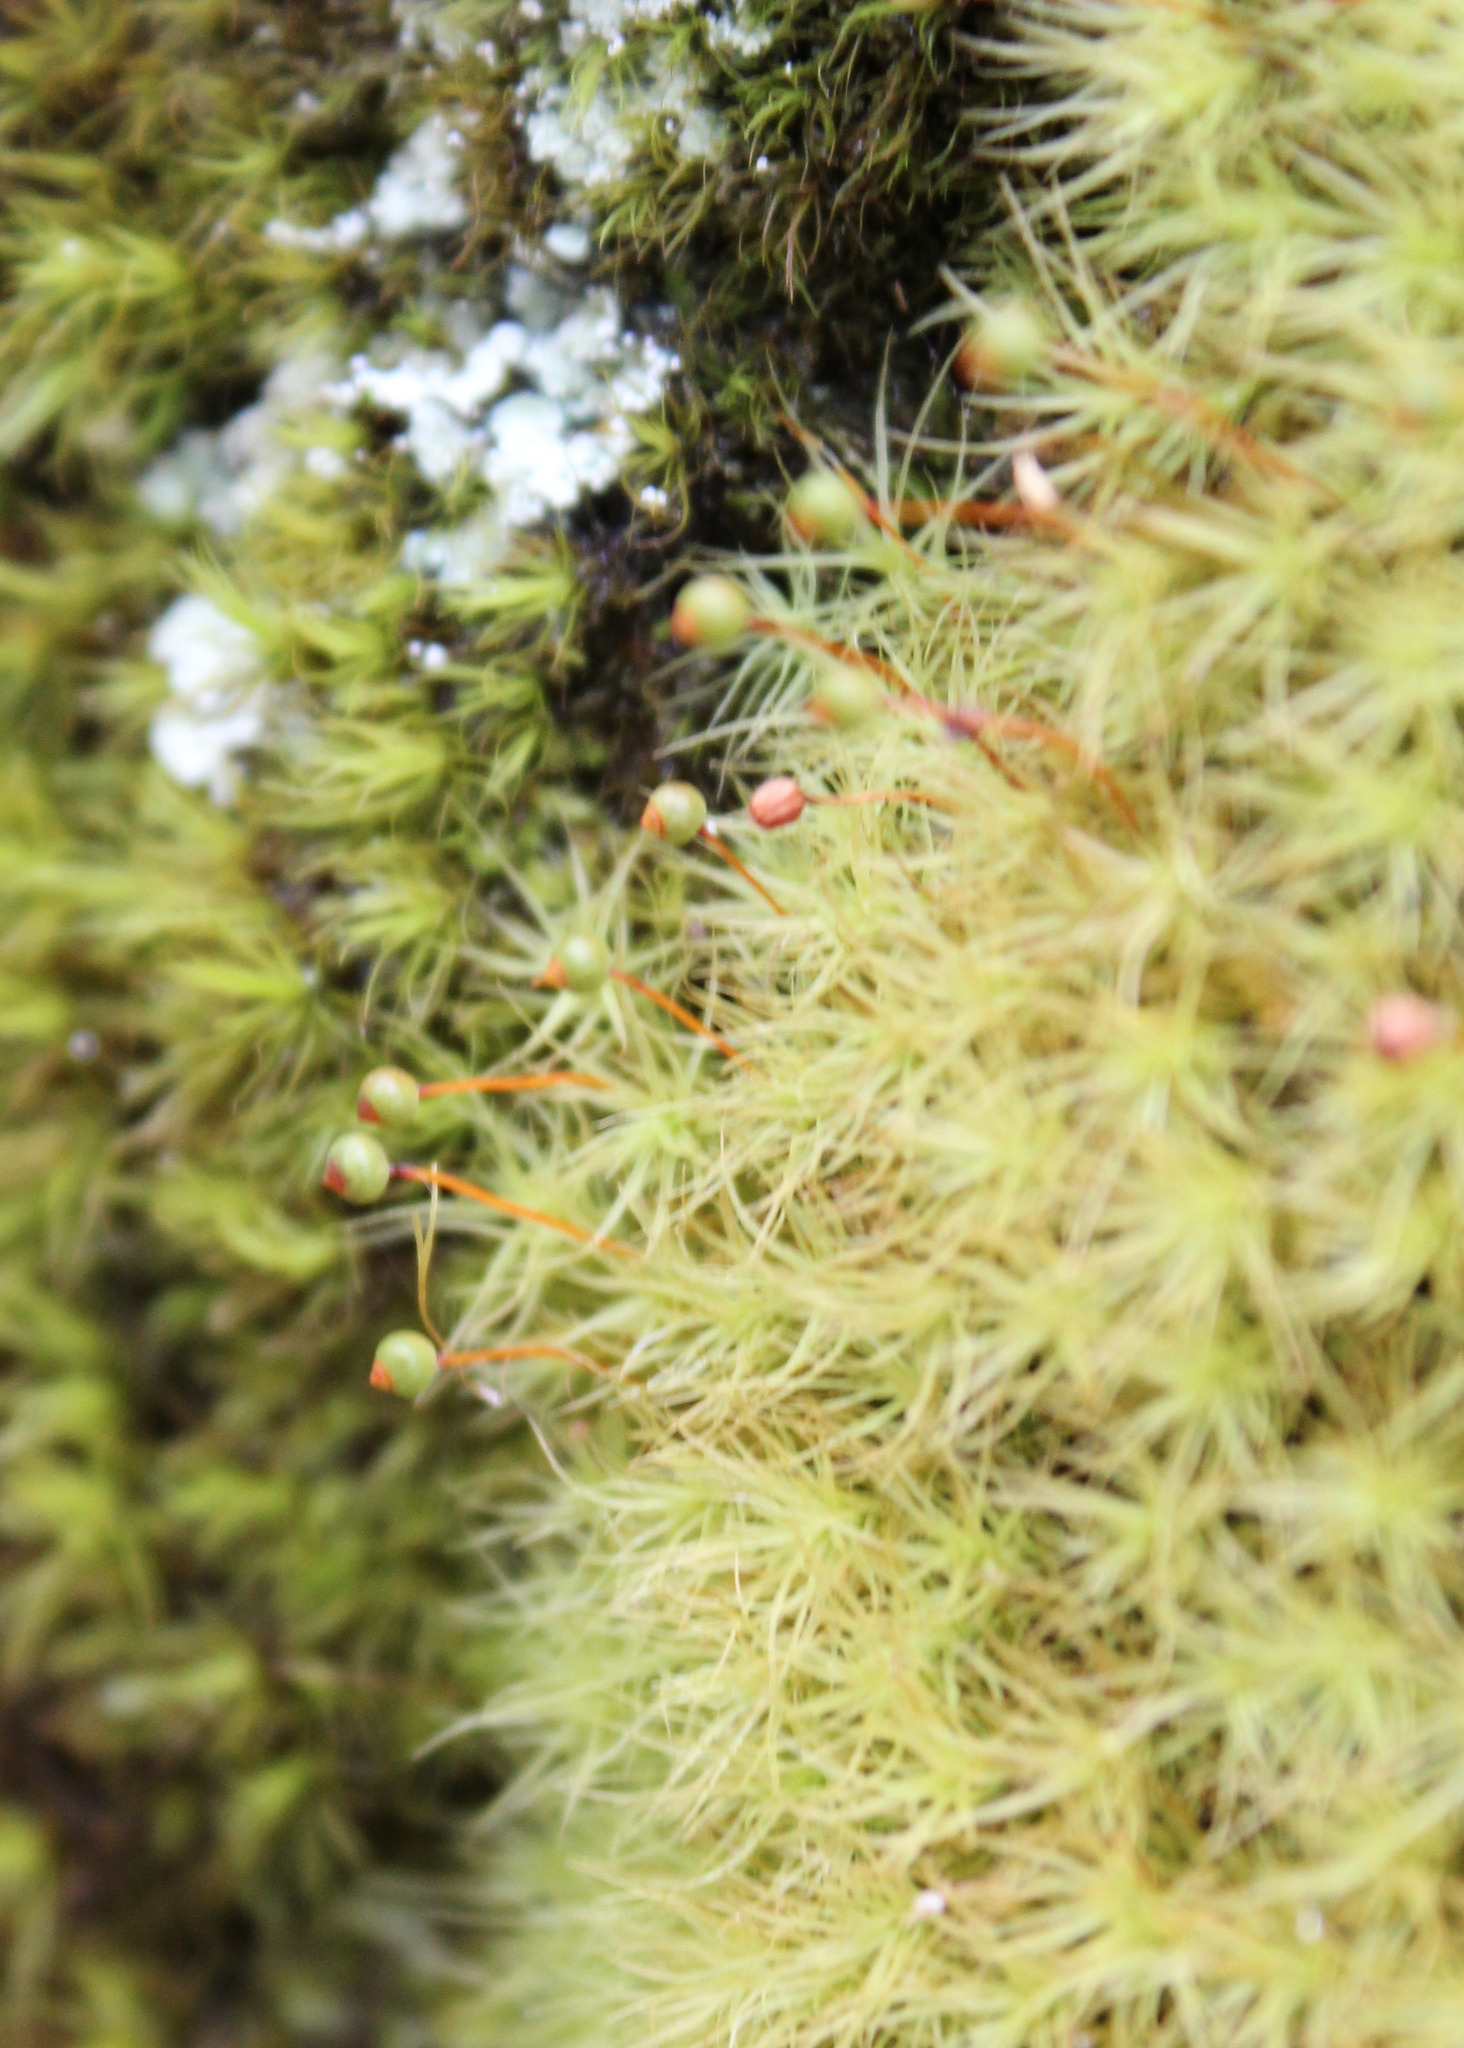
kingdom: Plantae
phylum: Bryophyta
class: Bryopsida
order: Bartramiales
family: Bartramiaceae
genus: Bartramia
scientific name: Bartramia ithyphylla
